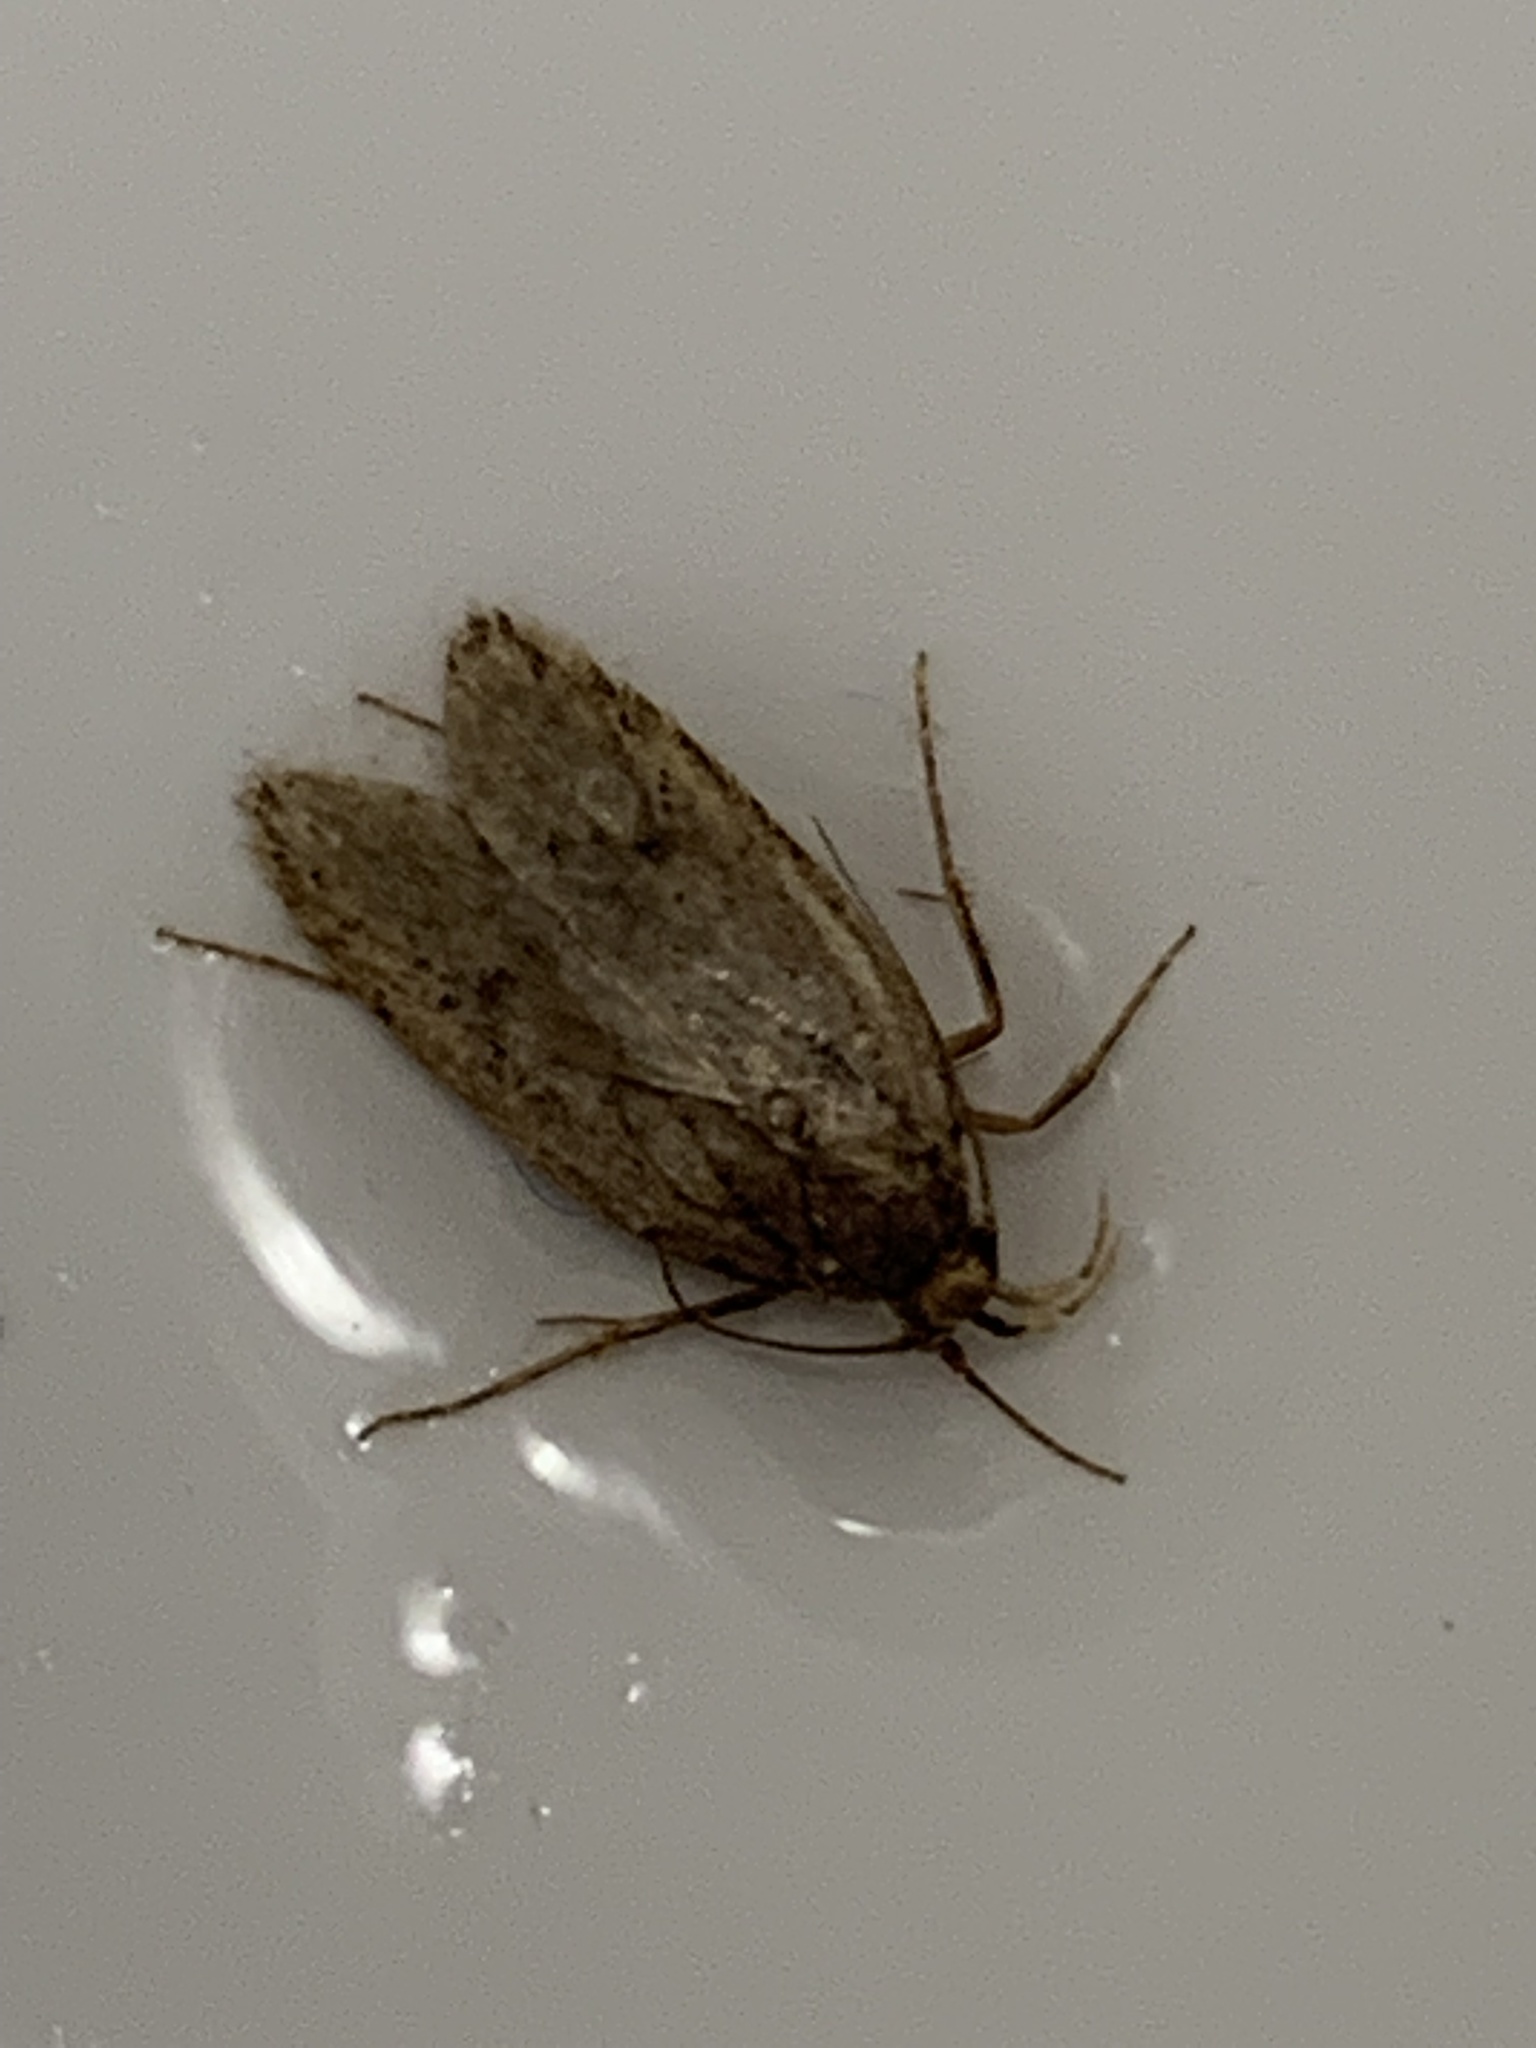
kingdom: Animalia
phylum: Arthropoda
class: Insecta
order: Lepidoptera
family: Oecophoridae
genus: Hofmannophila
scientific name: Hofmannophila pseudospretella
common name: Brown house moth
